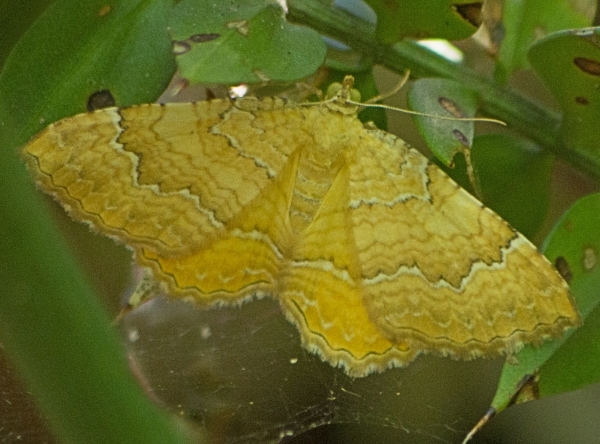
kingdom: Animalia
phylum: Arthropoda
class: Insecta
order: Lepidoptera
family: Geometridae
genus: Camptogramma
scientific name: Camptogramma bilineata
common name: Yellow shell
